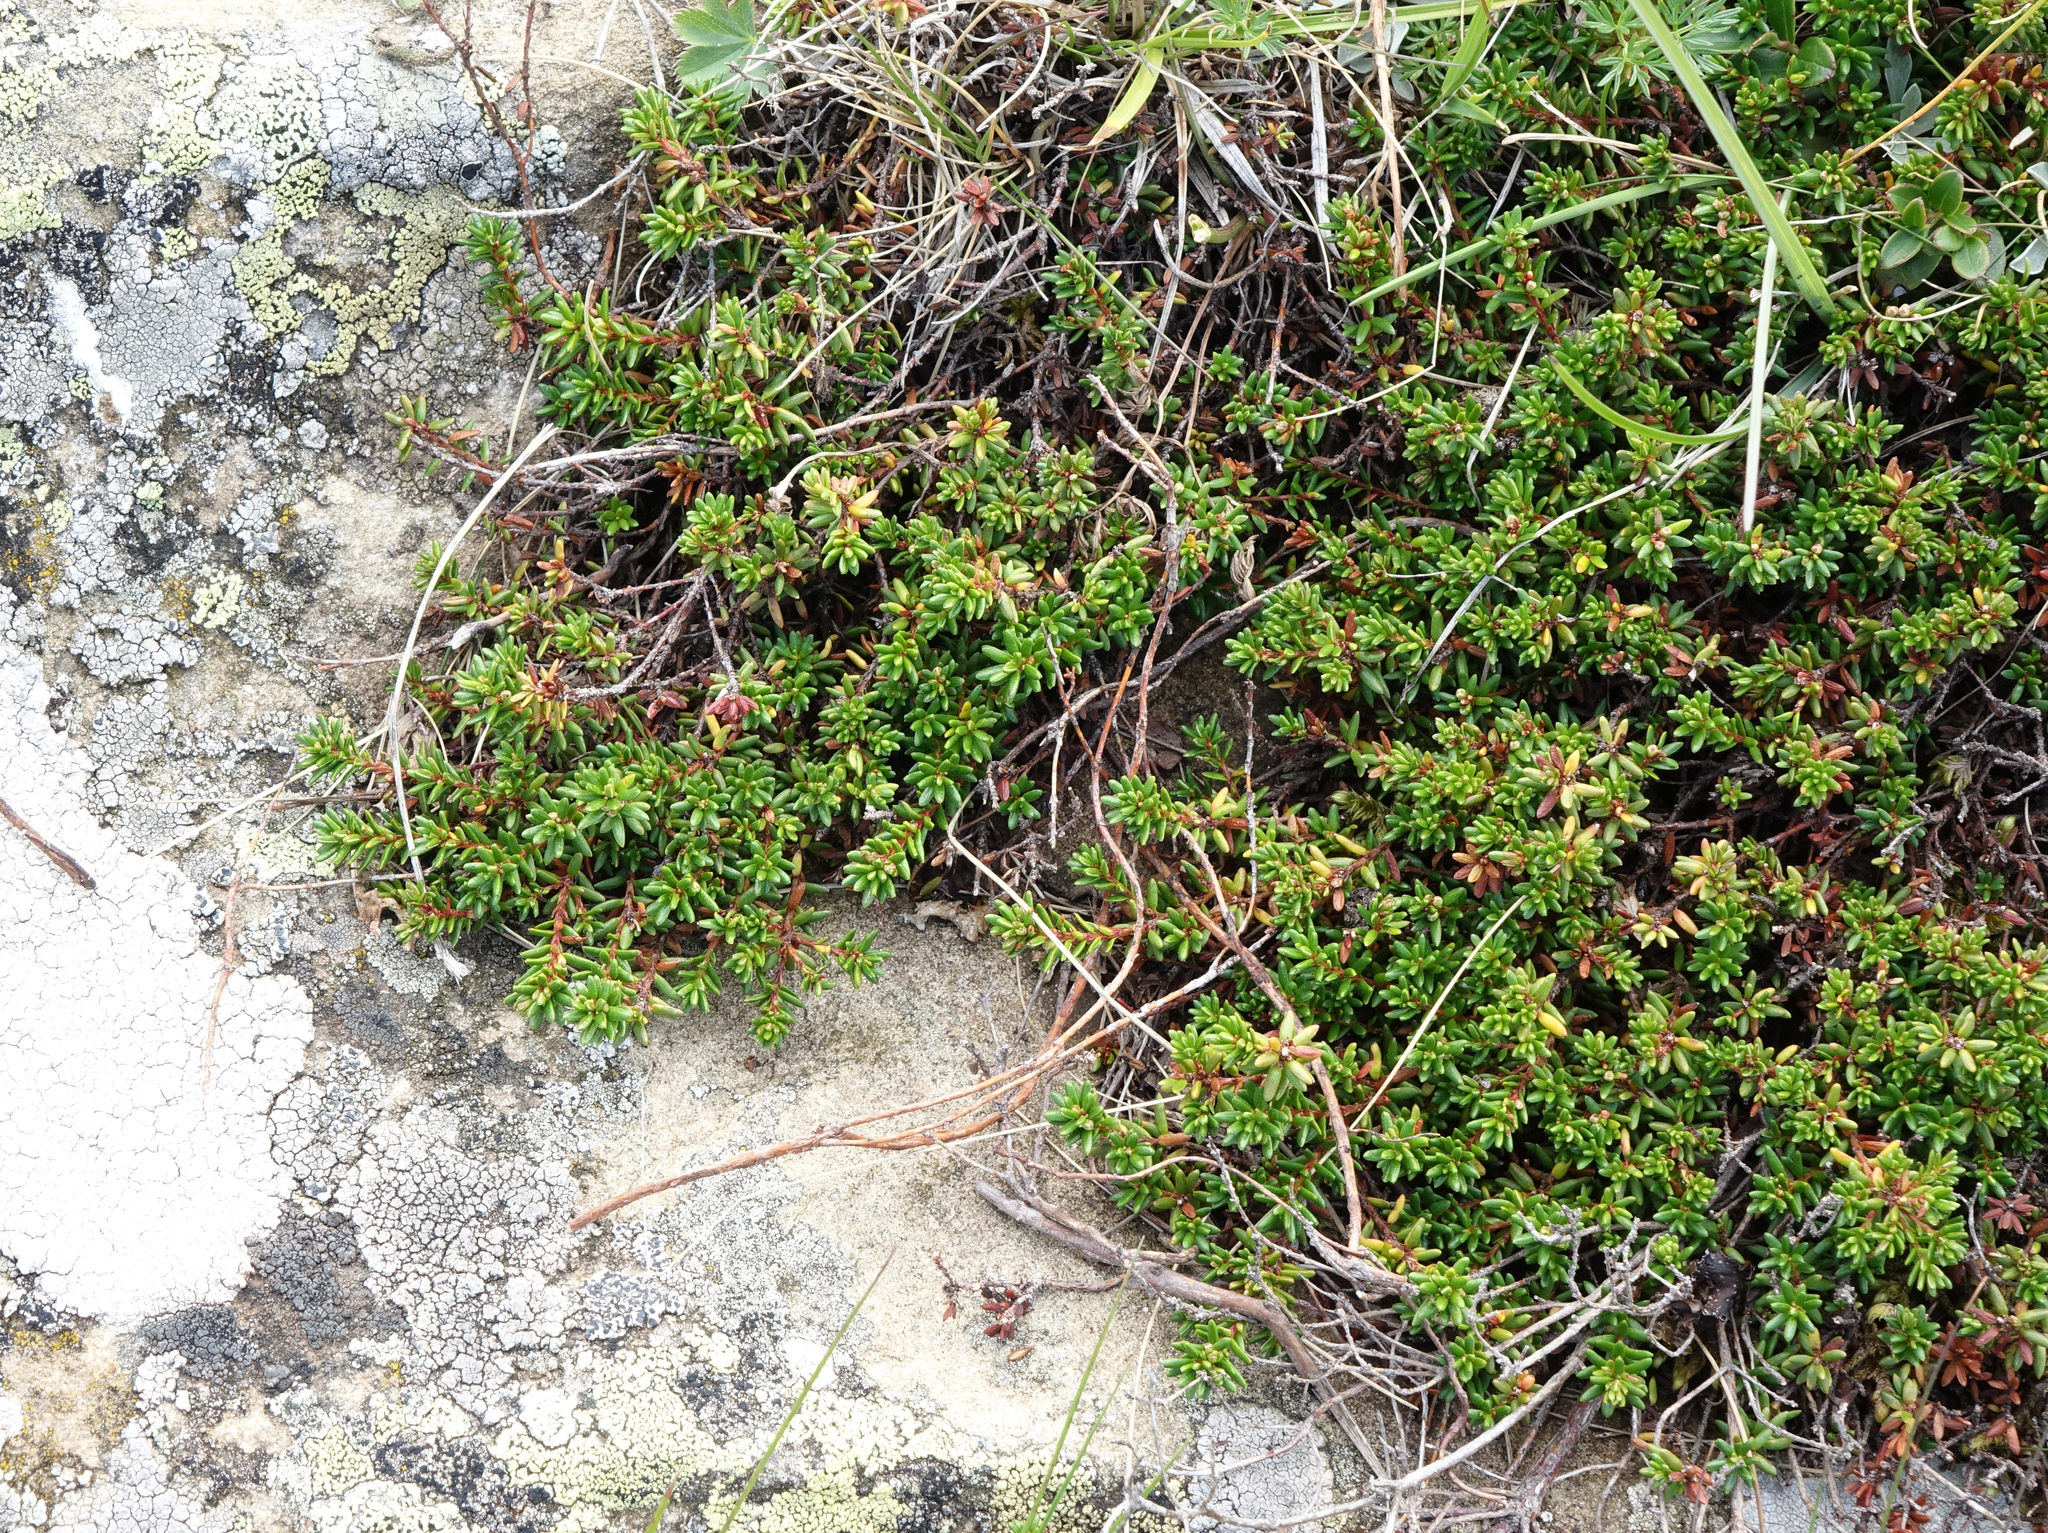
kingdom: Plantae
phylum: Tracheophyta
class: Magnoliopsida
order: Ericales
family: Ericaceae
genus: Empetrum
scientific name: Empetrum nigrum
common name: Black crowberry
